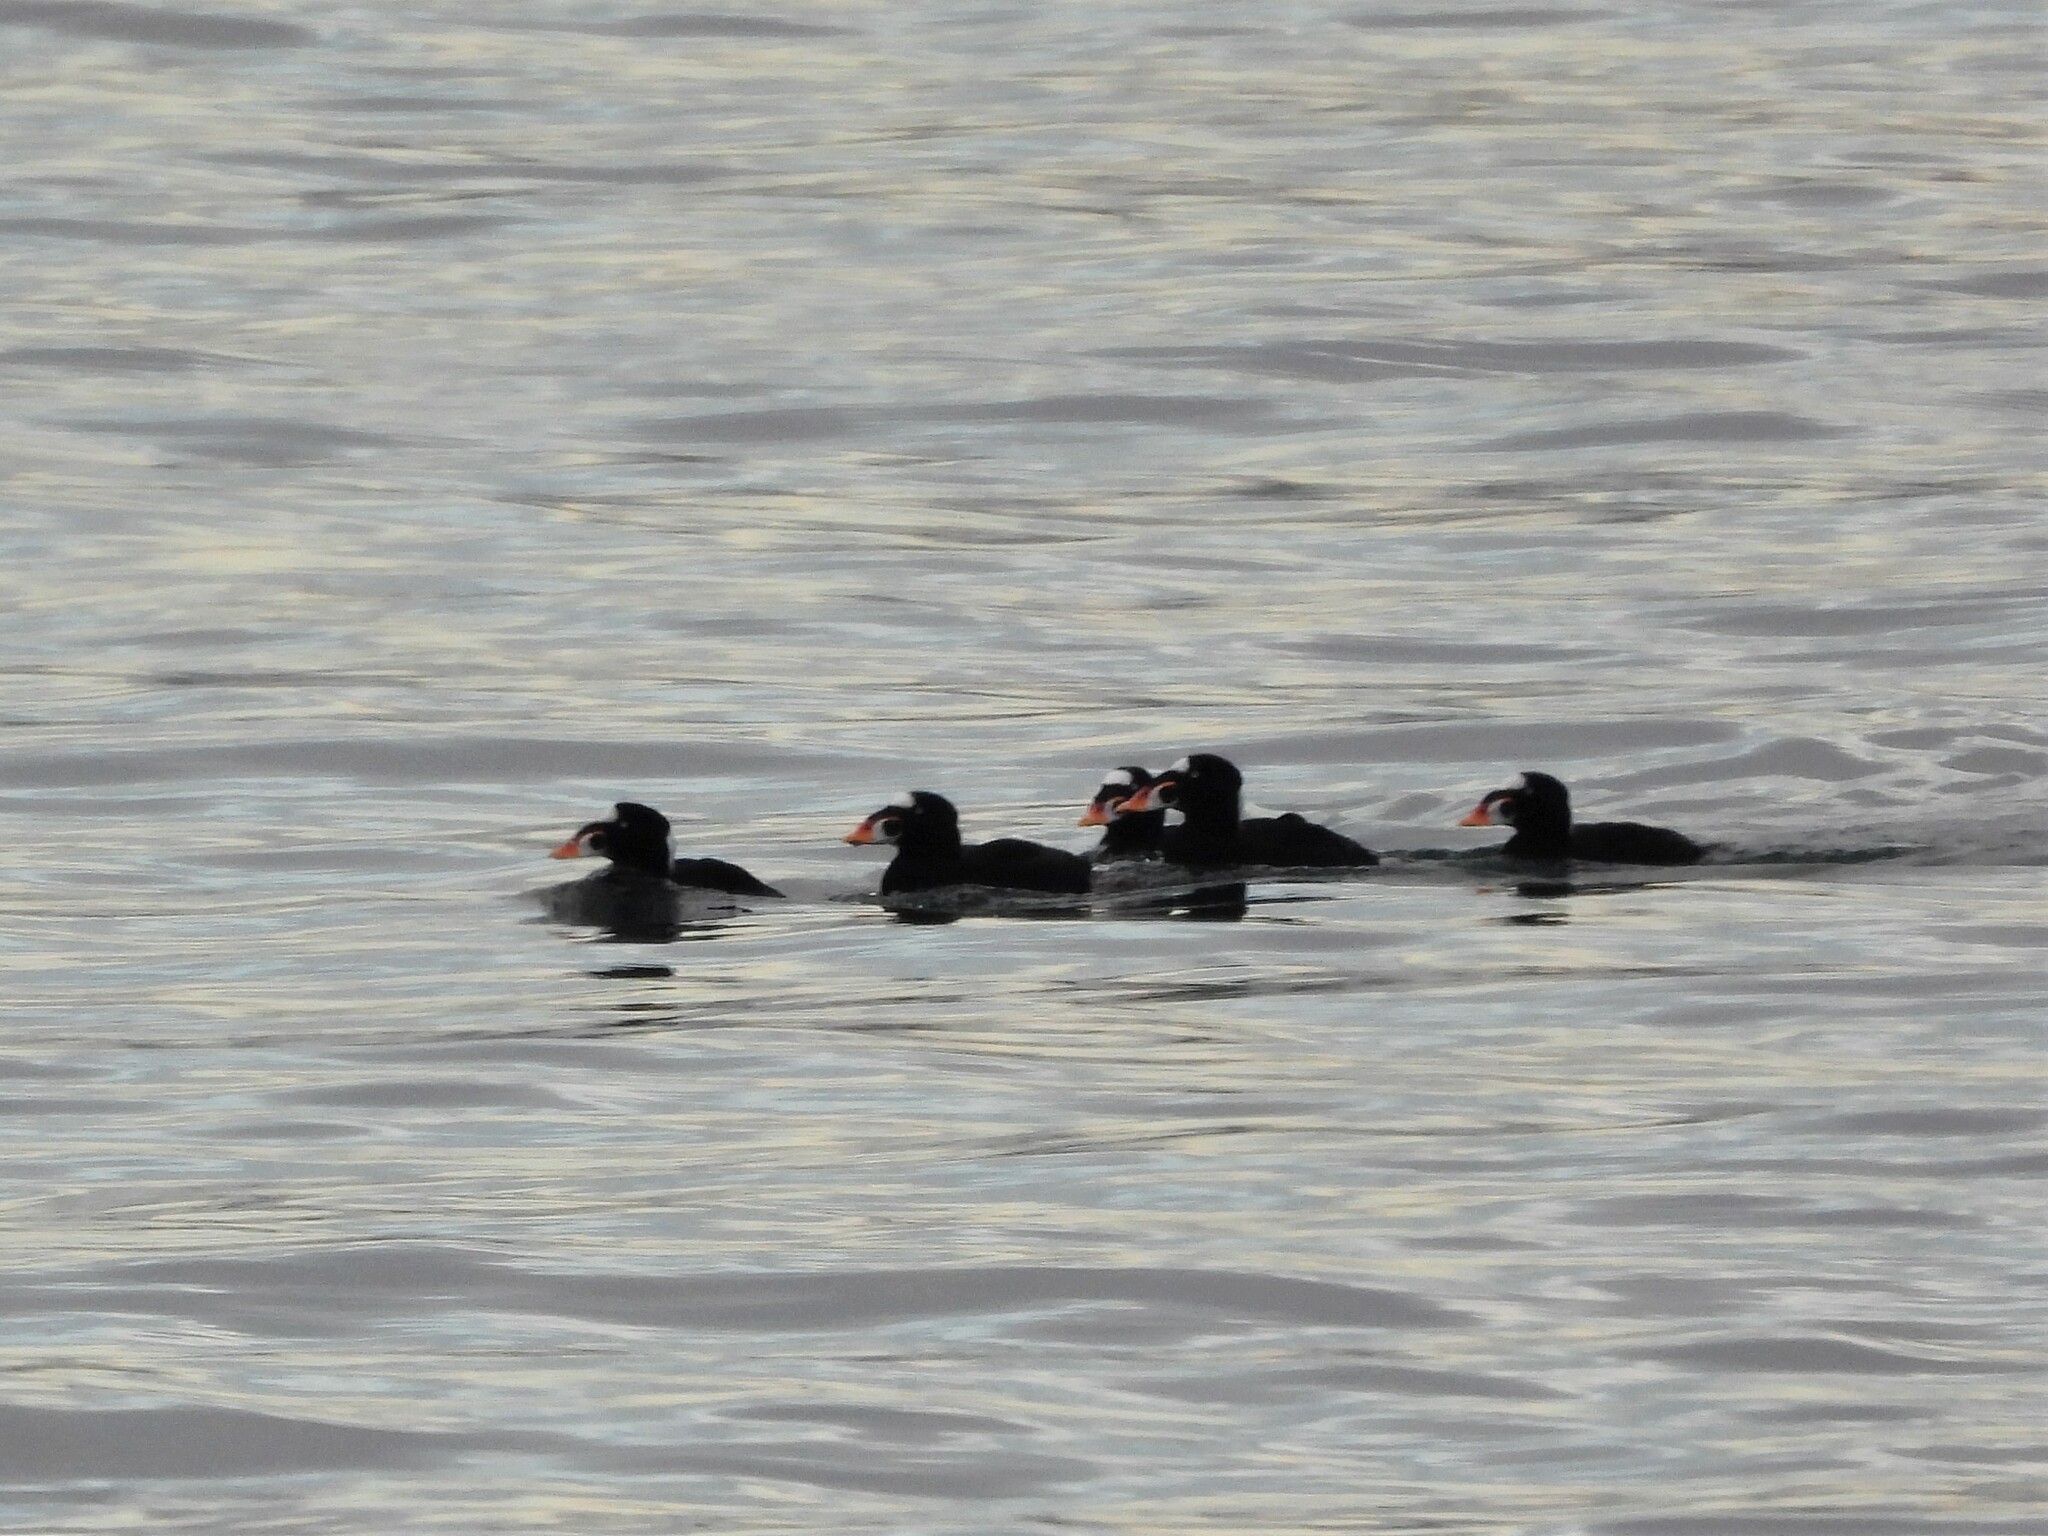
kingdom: Animalia
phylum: Chordata
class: Aves
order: Anseriformes
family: Anatidae
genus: Melanitta
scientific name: Melanitta perspicillata
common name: Surf scoter
